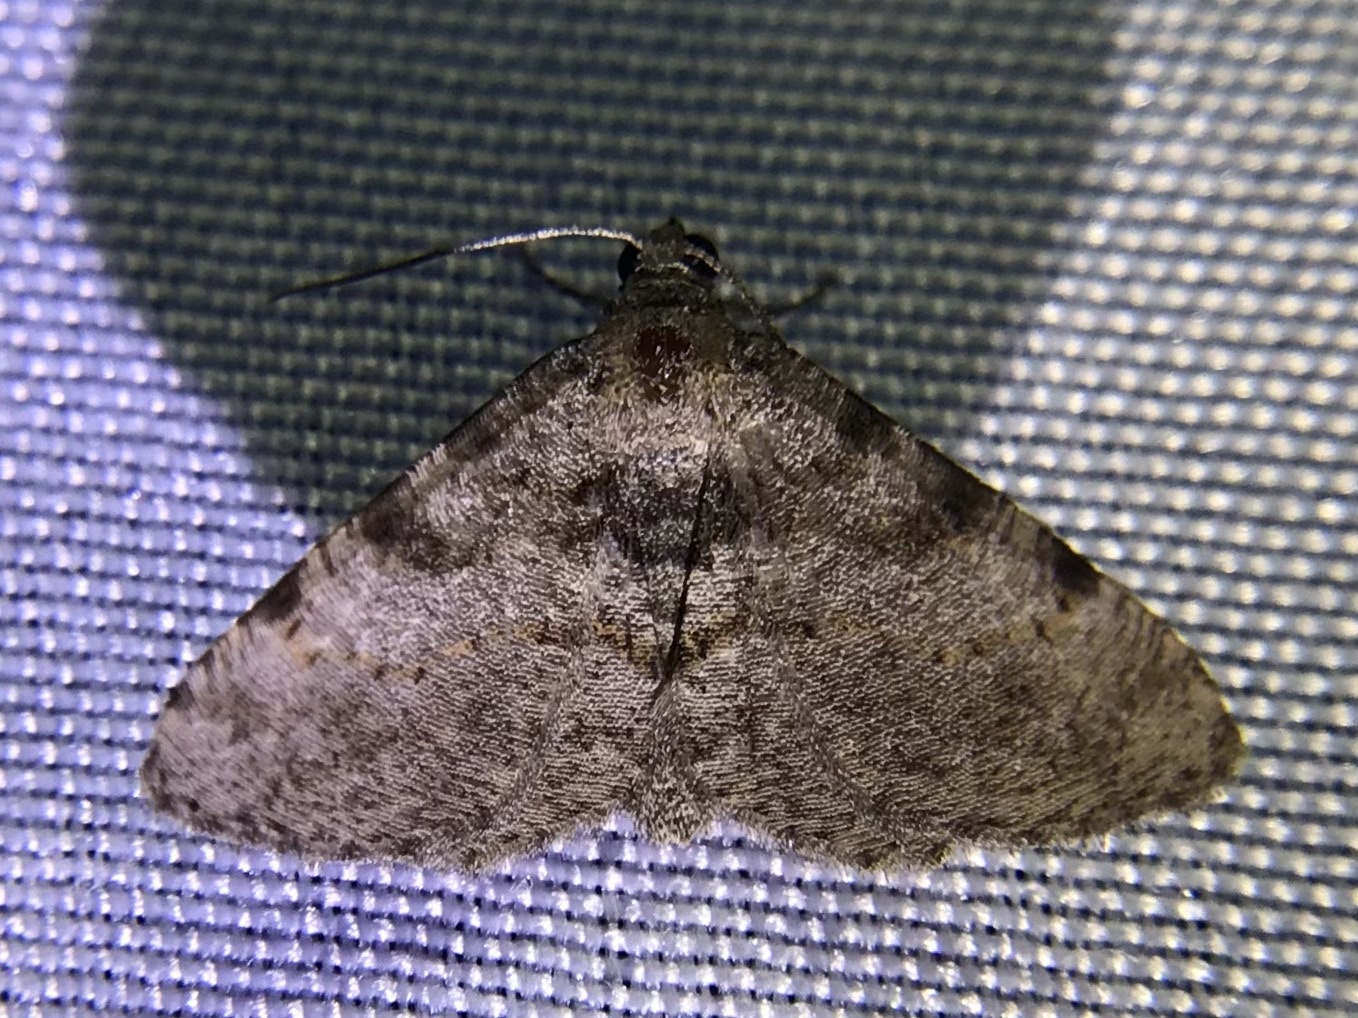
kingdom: Animalia
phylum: Arthropoda
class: Insecta
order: Lepidoptera
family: Geometridae
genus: Digrammia
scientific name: Digrammia gnophosaria
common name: Hollow-spotted angle
